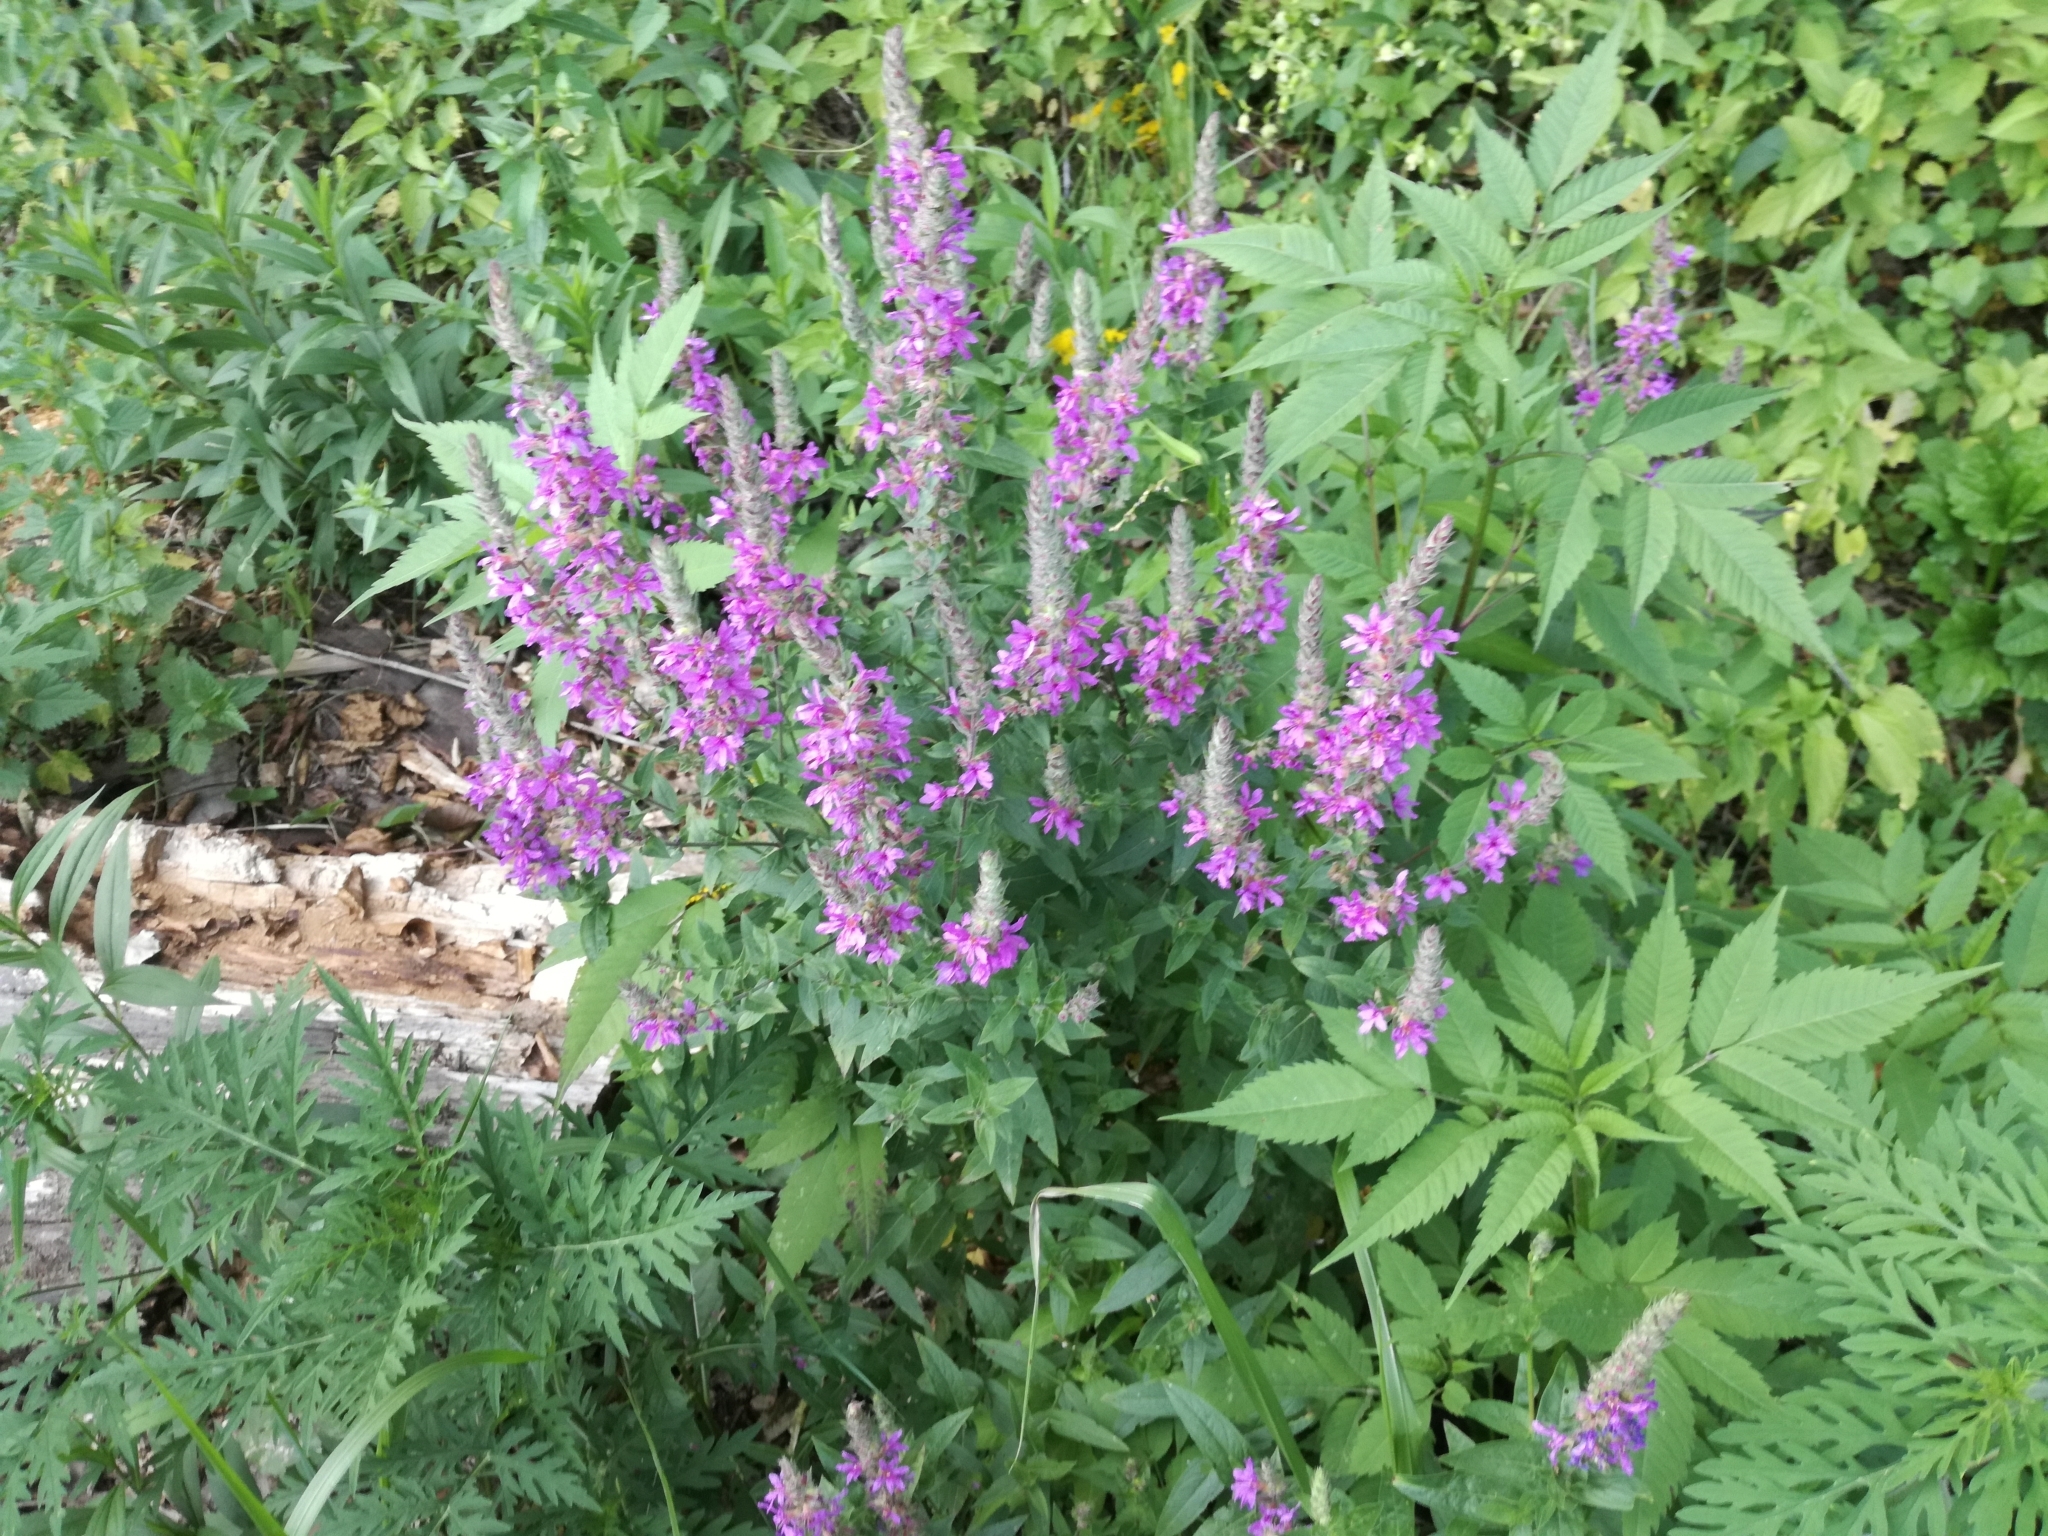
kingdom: Plantae
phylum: Tracheophyta
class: Magnoliopsida
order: Myrtales
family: Lythraceae
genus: Lythrum
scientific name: Lythrum salicaria
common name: Purple loosestrife
